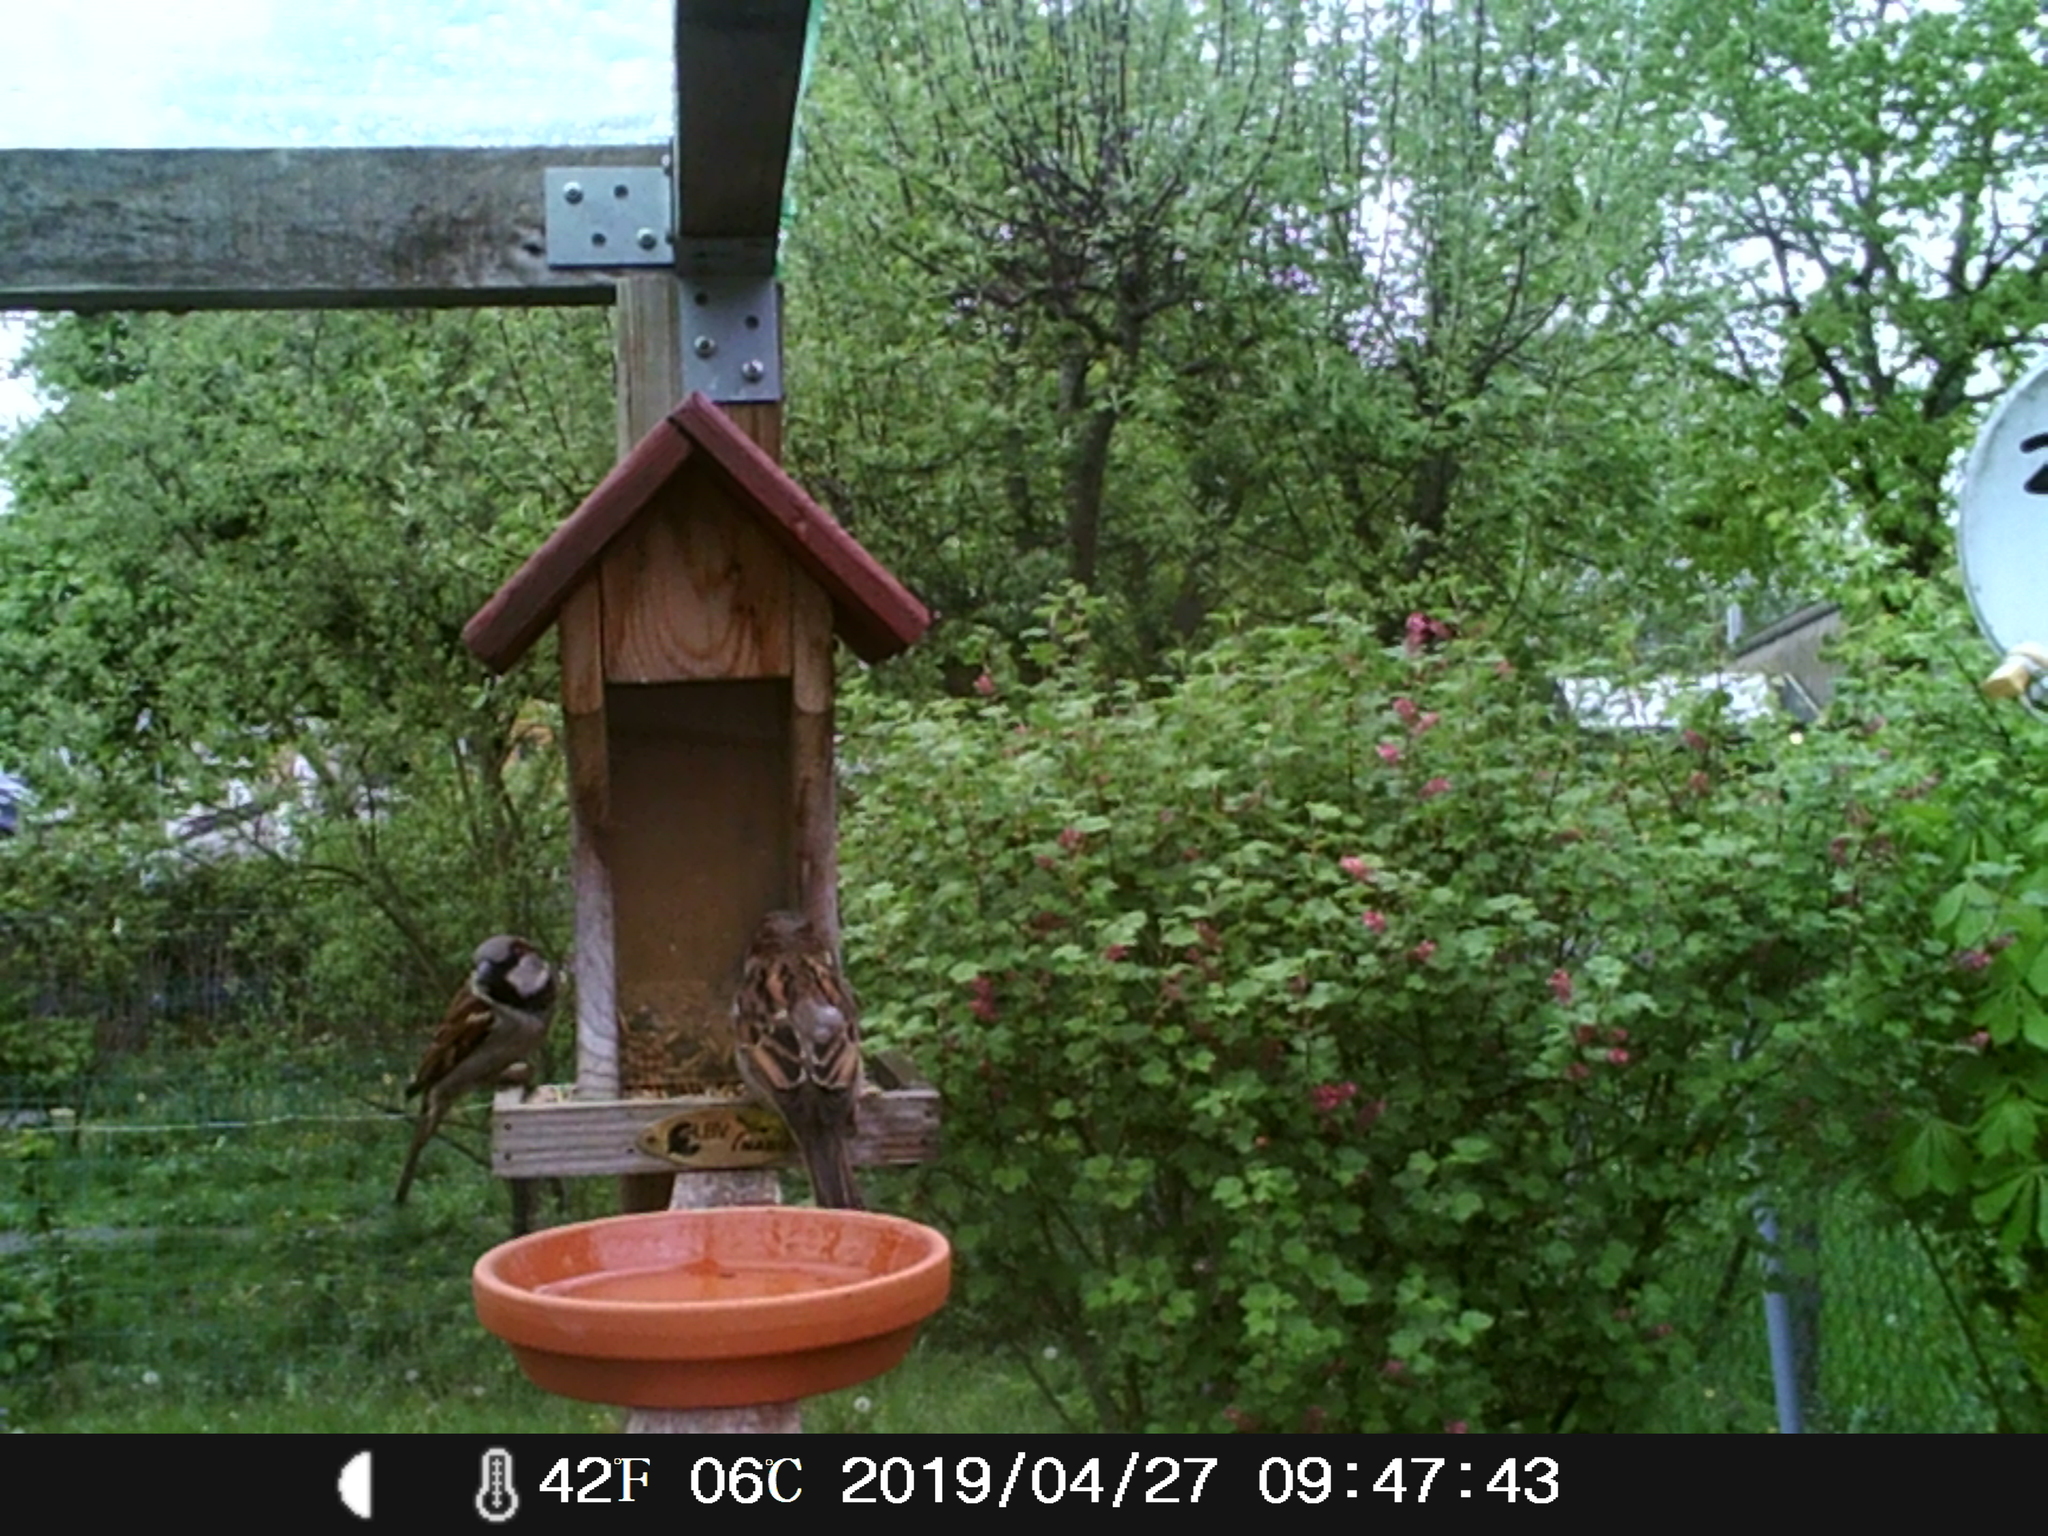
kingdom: Animalia
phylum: Chordata
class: Aves
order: Passeriformes
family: Passeridae
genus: Passer
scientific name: Passer domesticus
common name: House sparrow
